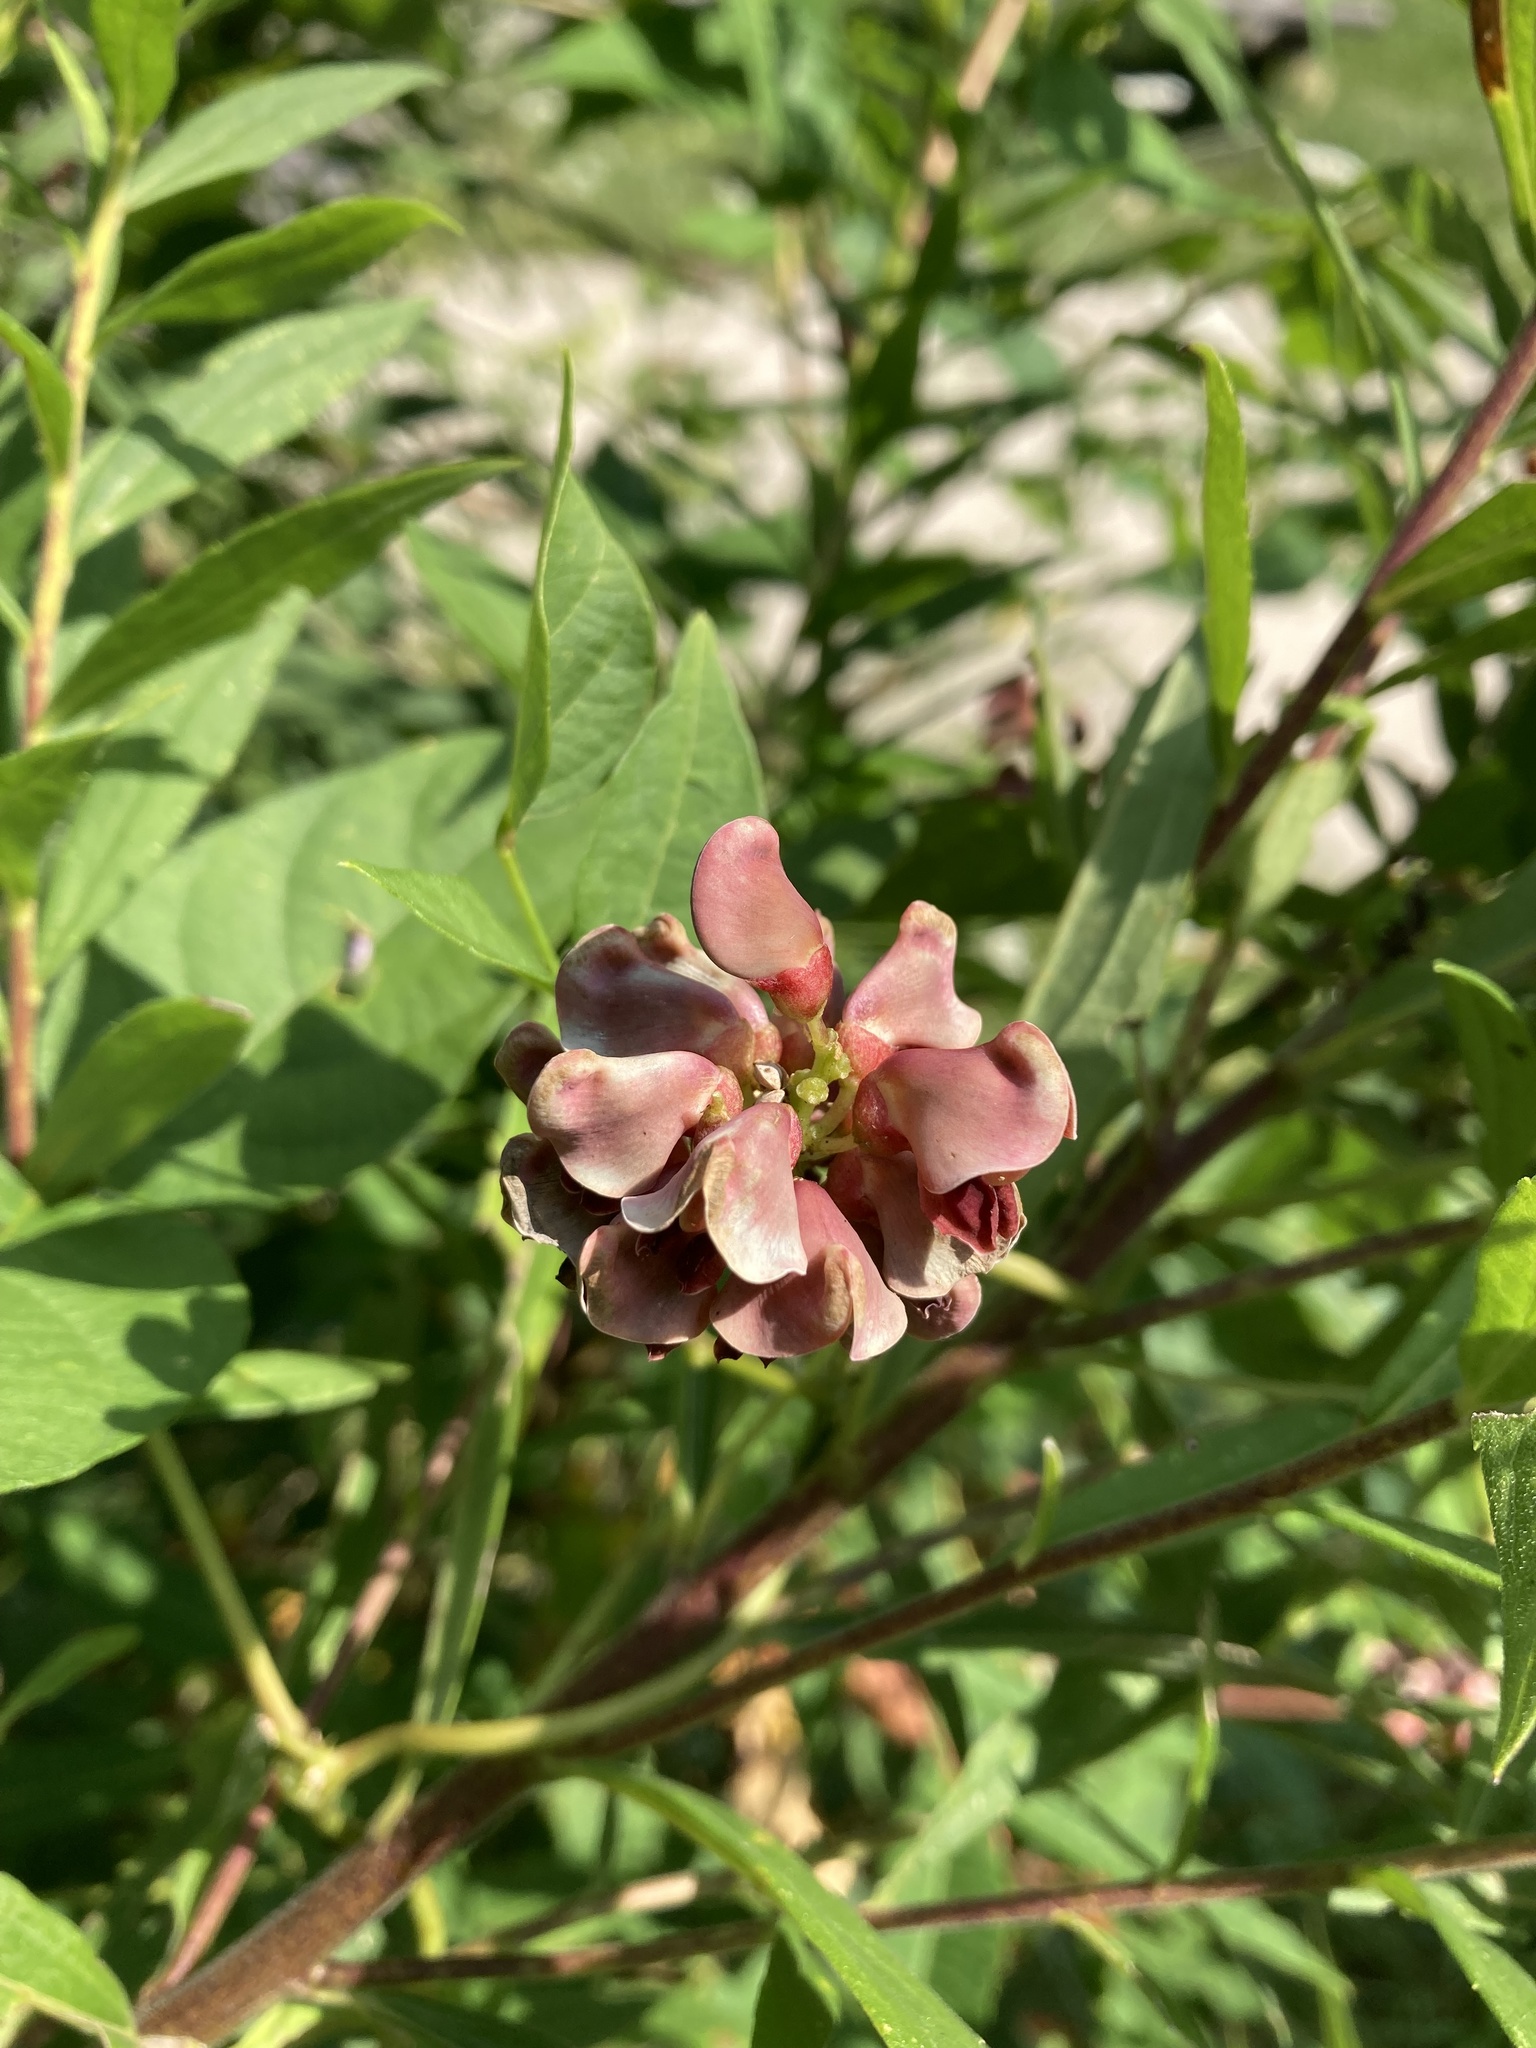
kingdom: Plantae
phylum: Tracheophyta
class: Magnoliopsida
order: Fabales
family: Fabaceae
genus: Apios
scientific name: Apios americana
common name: American potato-bean
